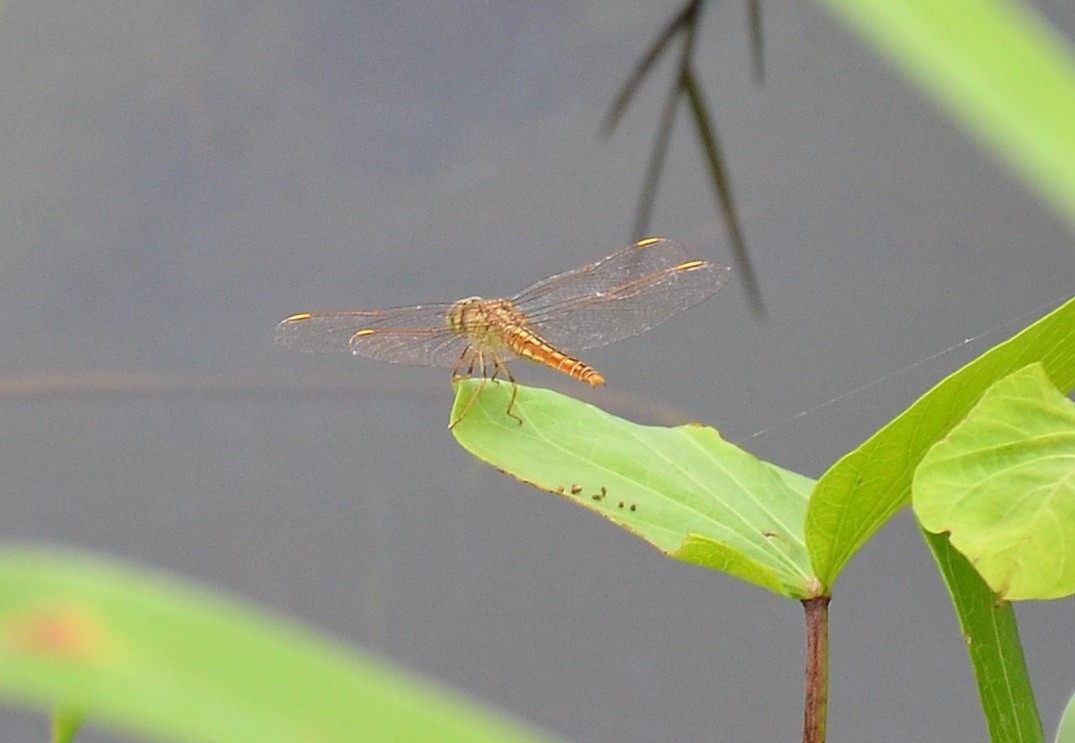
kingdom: Animalia
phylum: Arthropoda
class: Insecta
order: Odonata
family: Libellulidae
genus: Brachythemis
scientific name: Brachythemis contaminata
